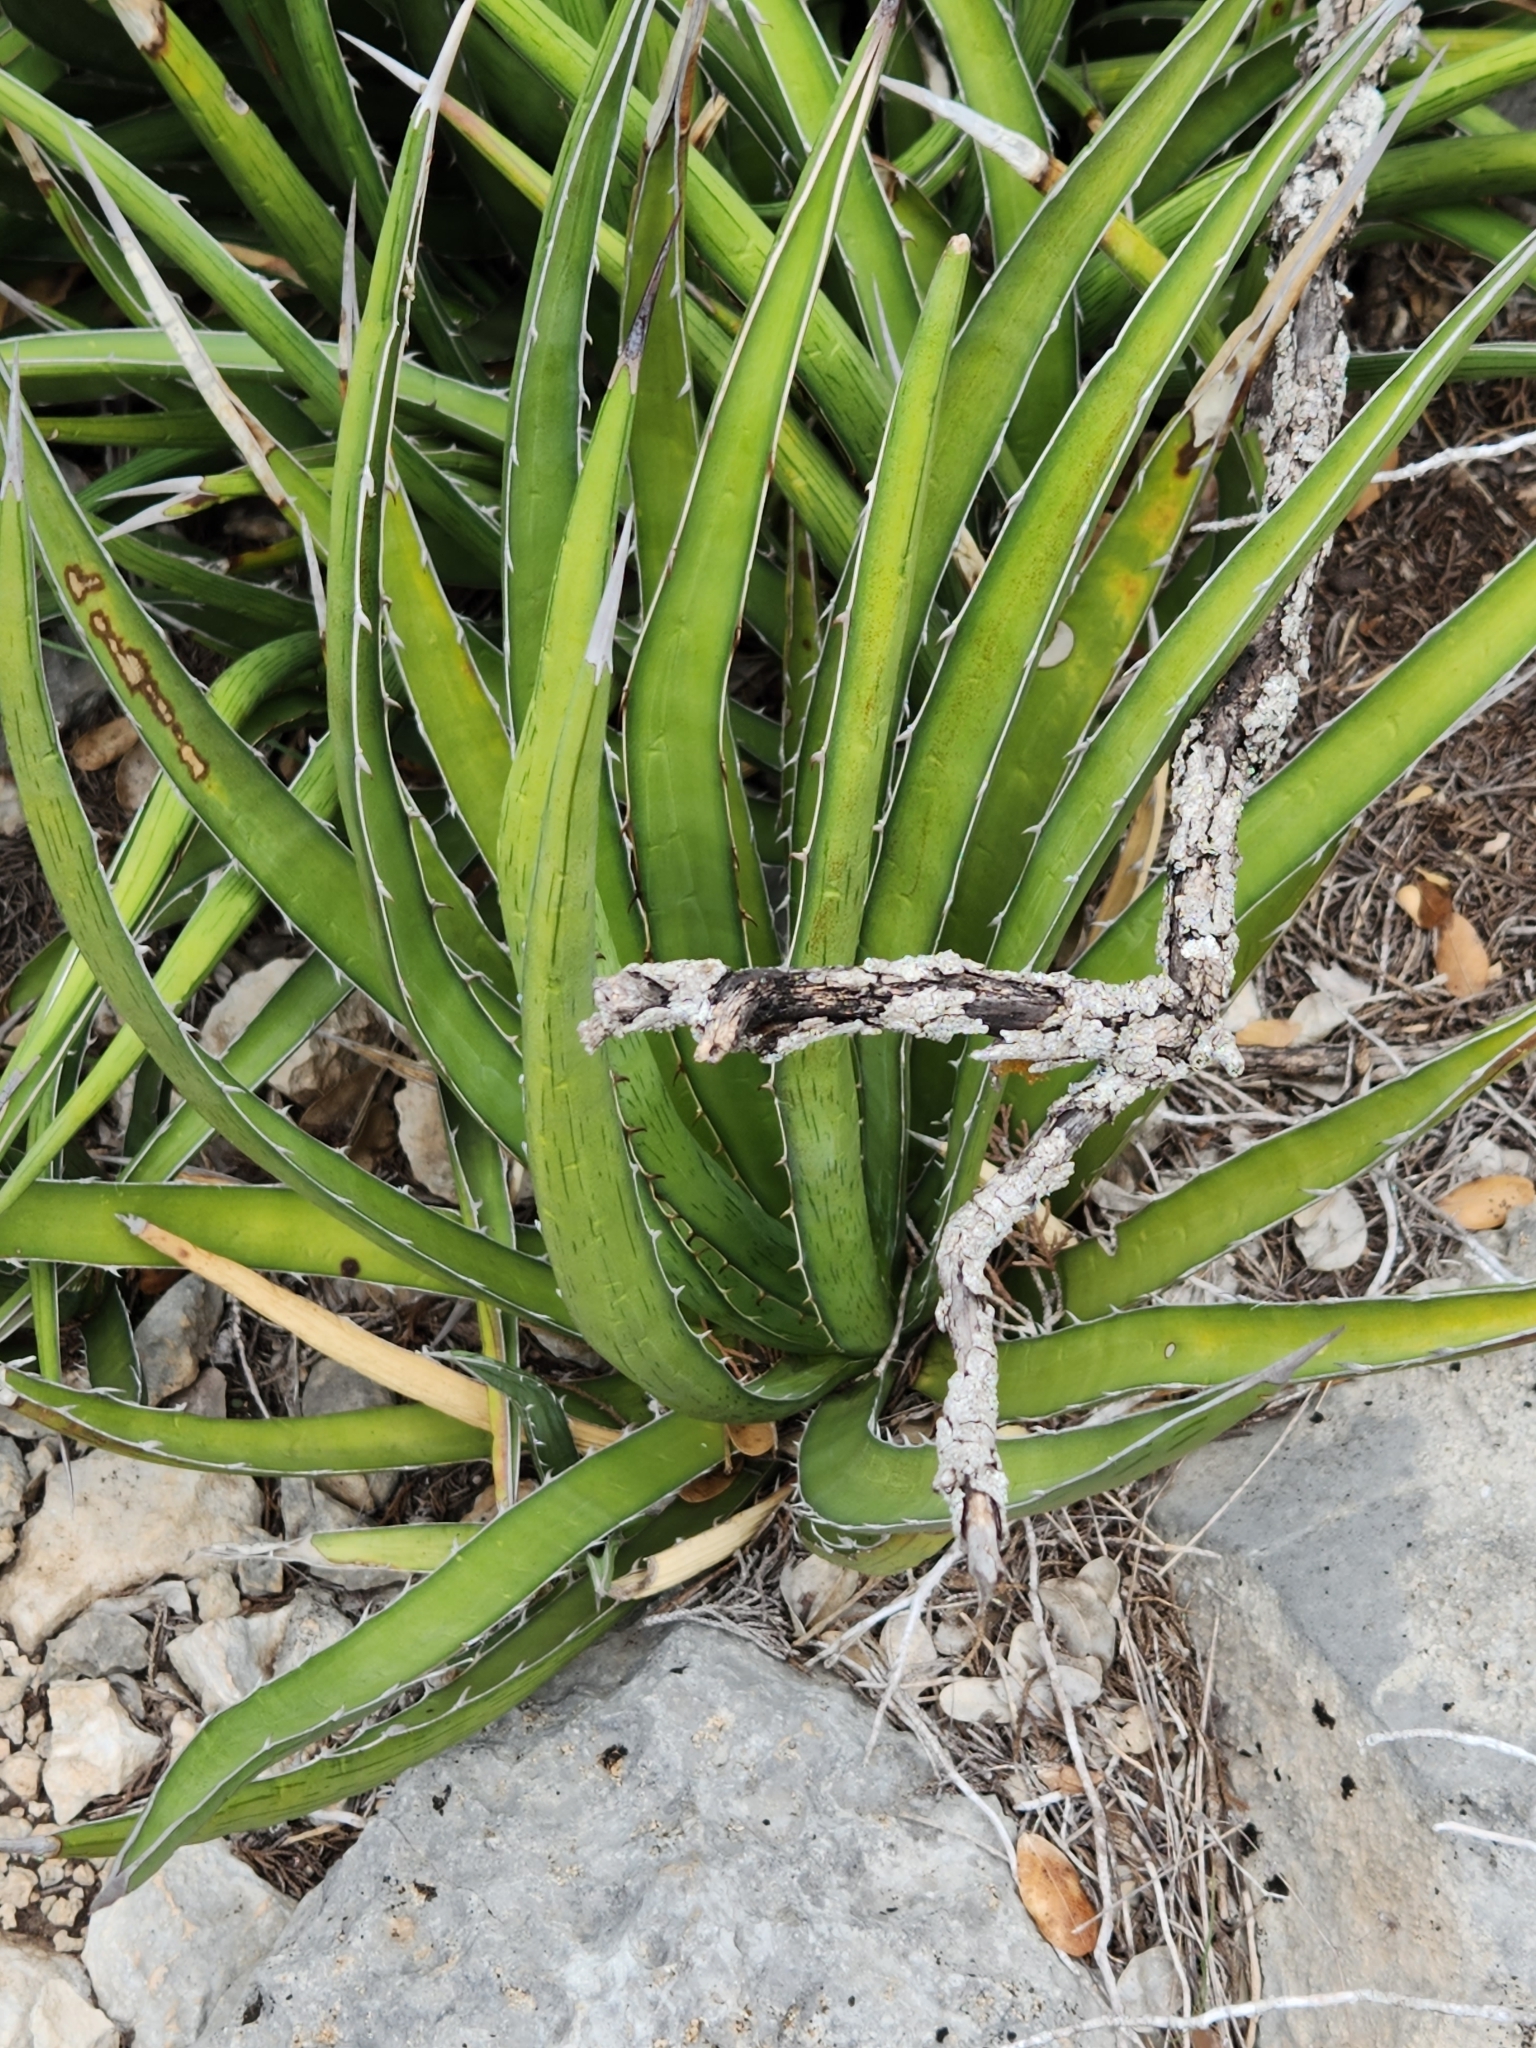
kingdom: Plantae
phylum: Tracheophyta
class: Liliopsida
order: Asparagales
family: Asparagaceae
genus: Agave
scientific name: Agave lechuguilla
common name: Lecheguilla agave
